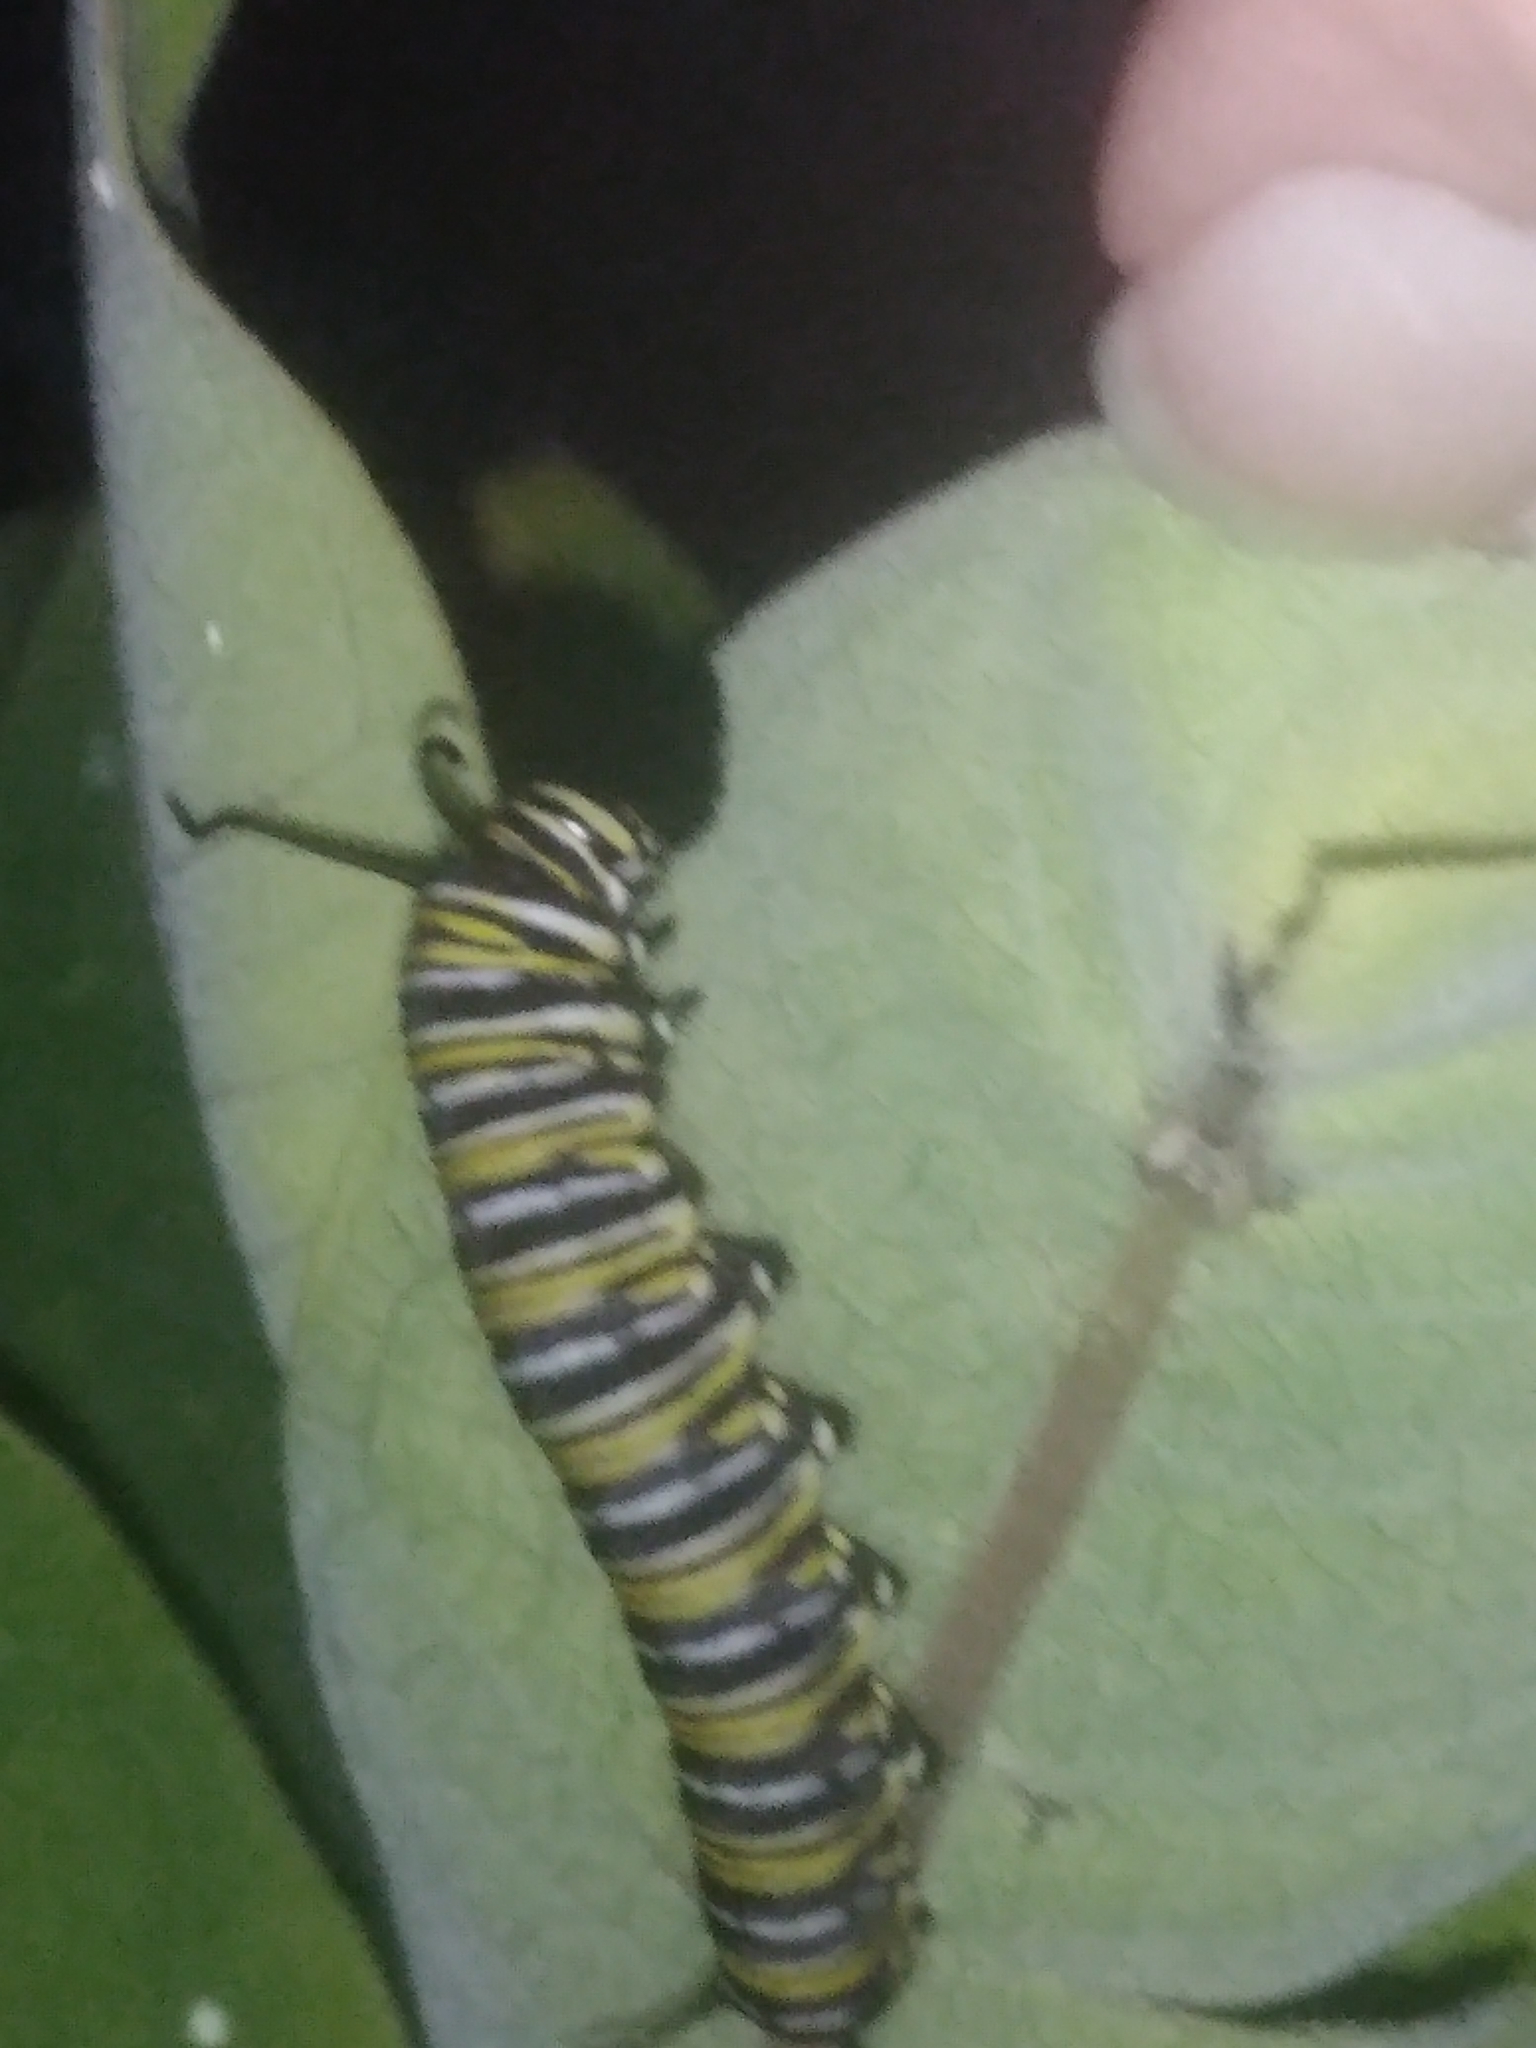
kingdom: Animalia
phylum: Arthropoda
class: Insecta
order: Lepidoptera
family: Nymphalidae
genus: Danaus
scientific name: Danaus plexippus
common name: Monarch
